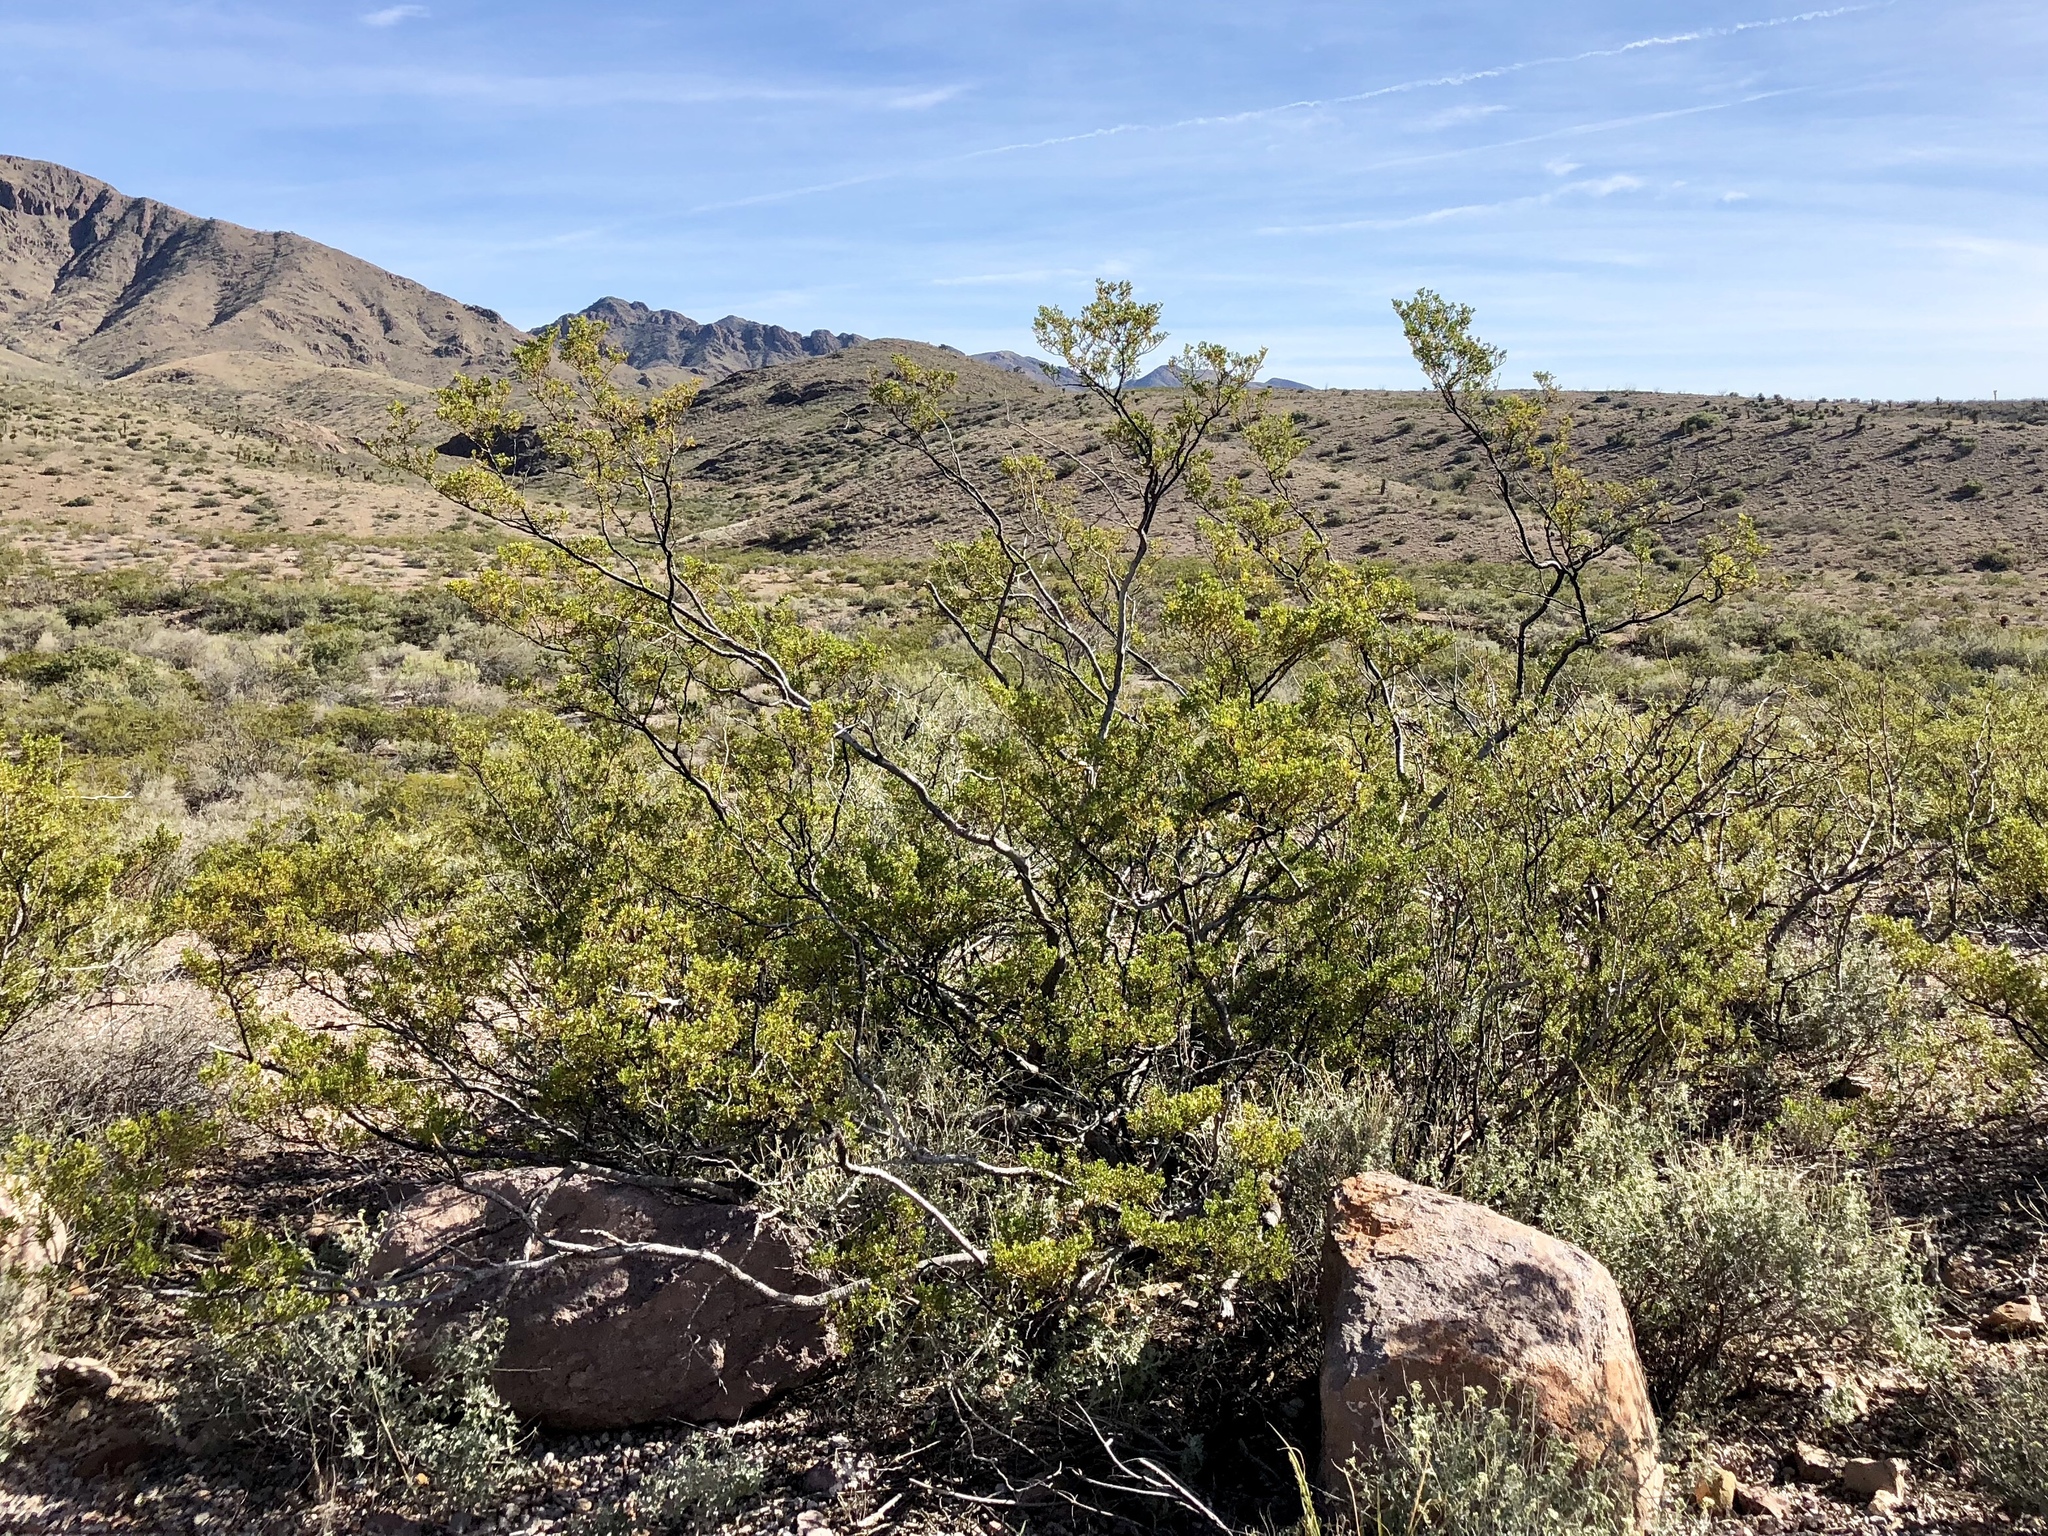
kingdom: Plantae
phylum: Tracheophyta
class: Magnoliopsida
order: Zygophyllales
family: Zygophyllaceae
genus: Larrea
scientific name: Larrea tridentata
